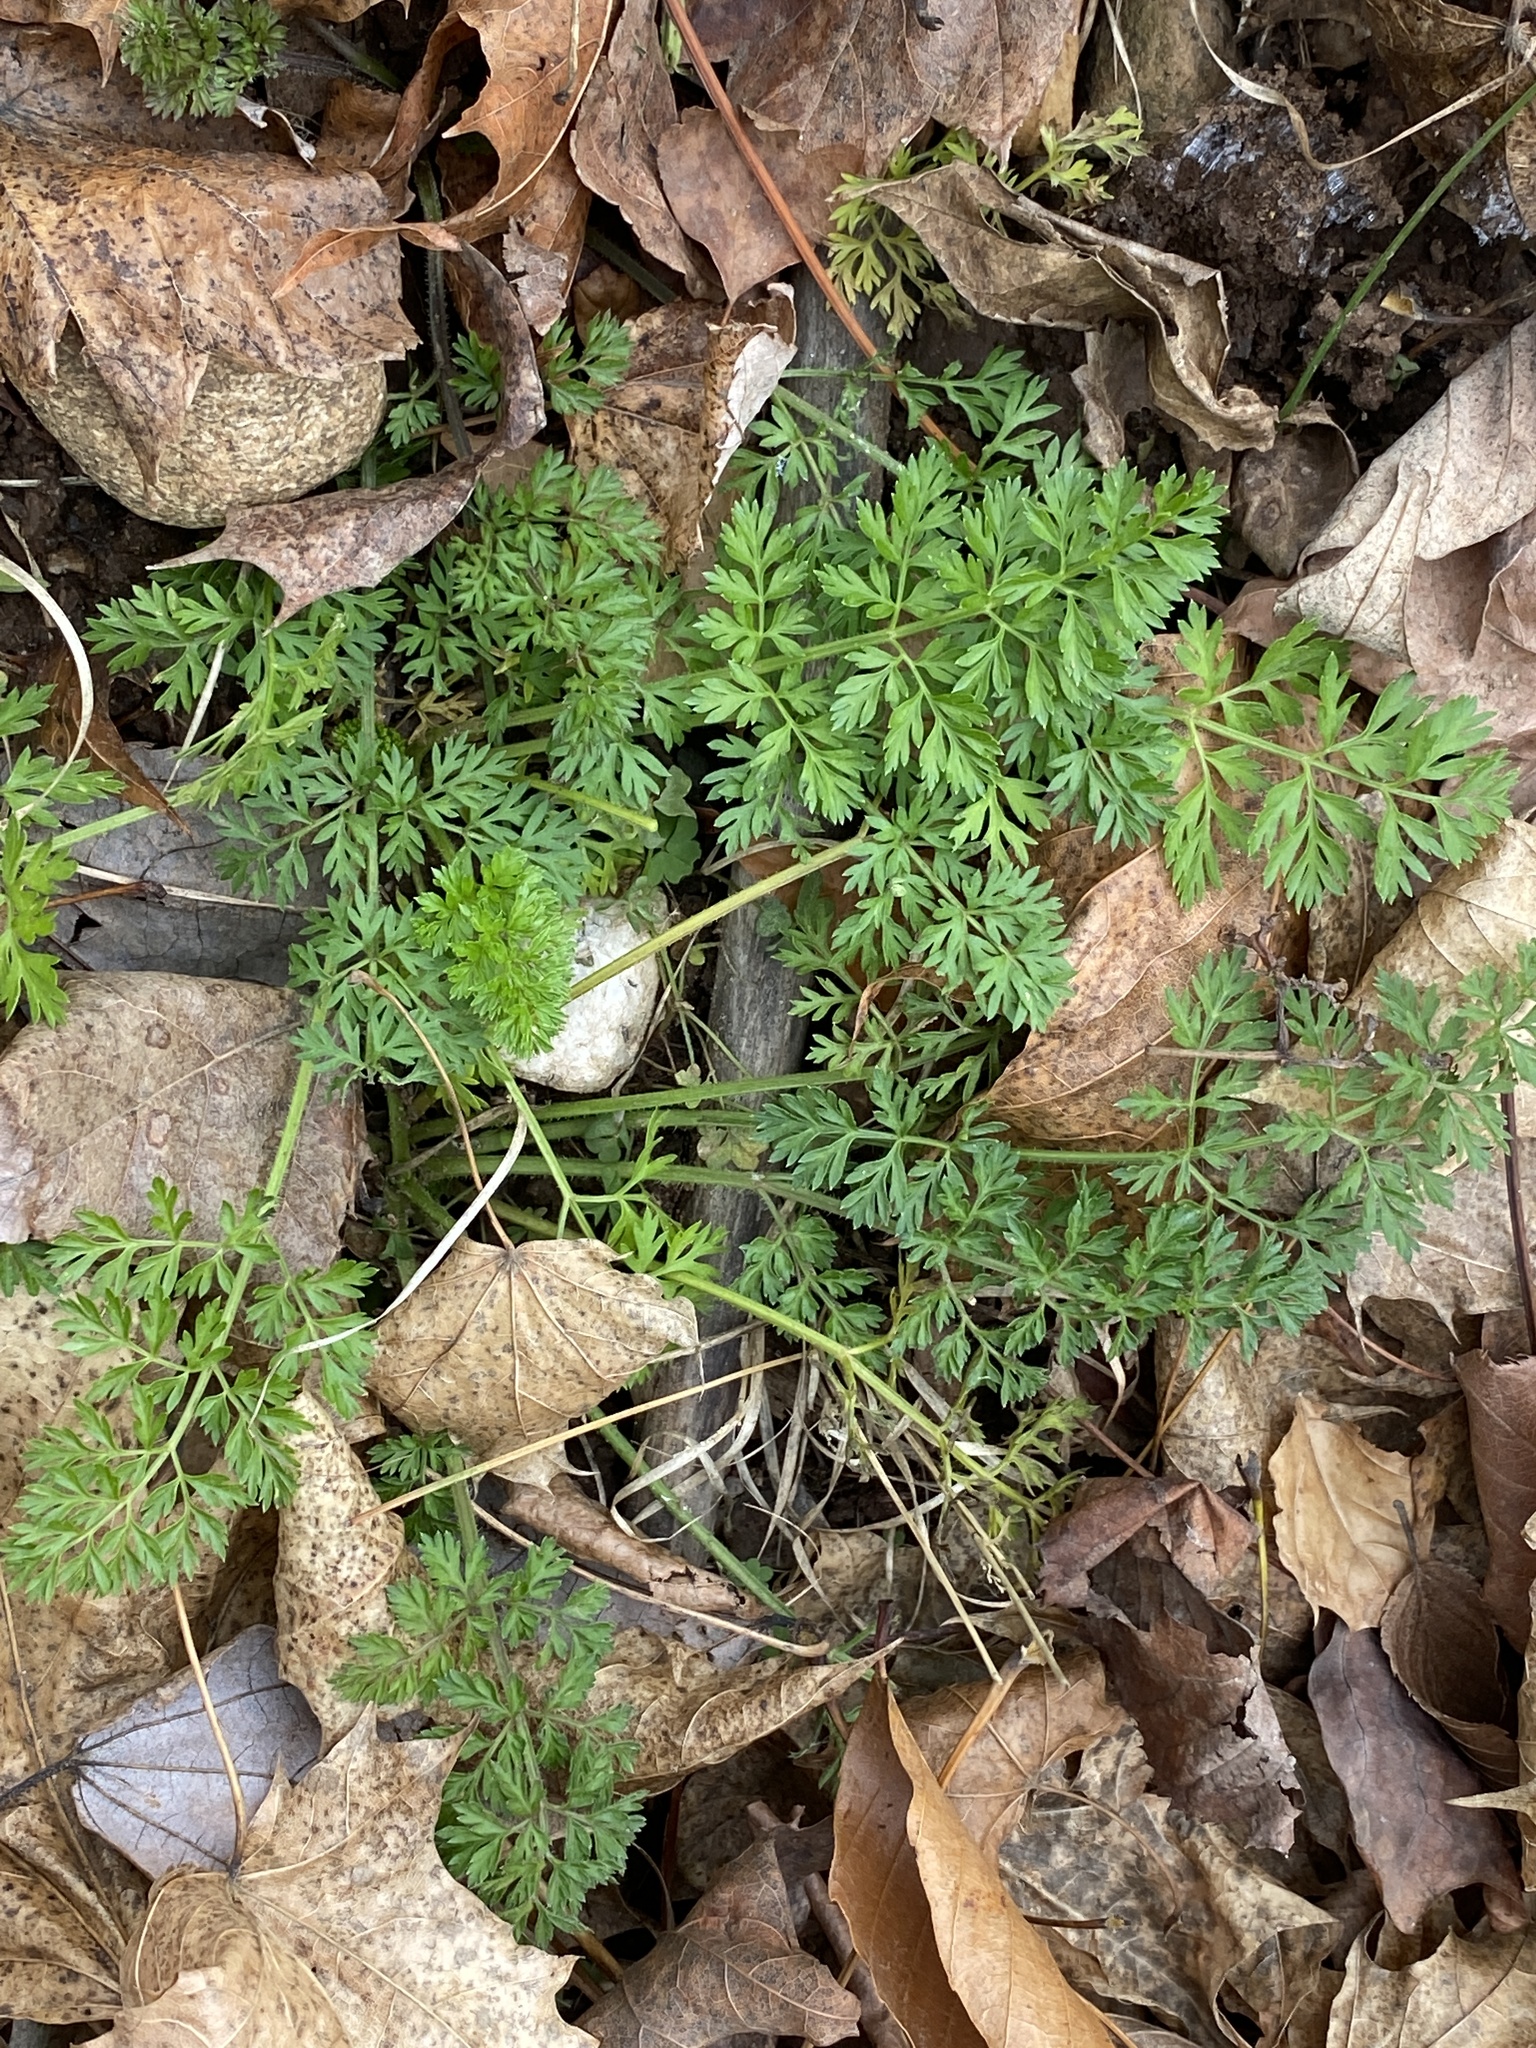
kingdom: Plantae
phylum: Tracheophyta
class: Magnoliopsida
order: Apiales
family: Apiaceae
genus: Daucus
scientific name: Daucus carota
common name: Wild carrot
